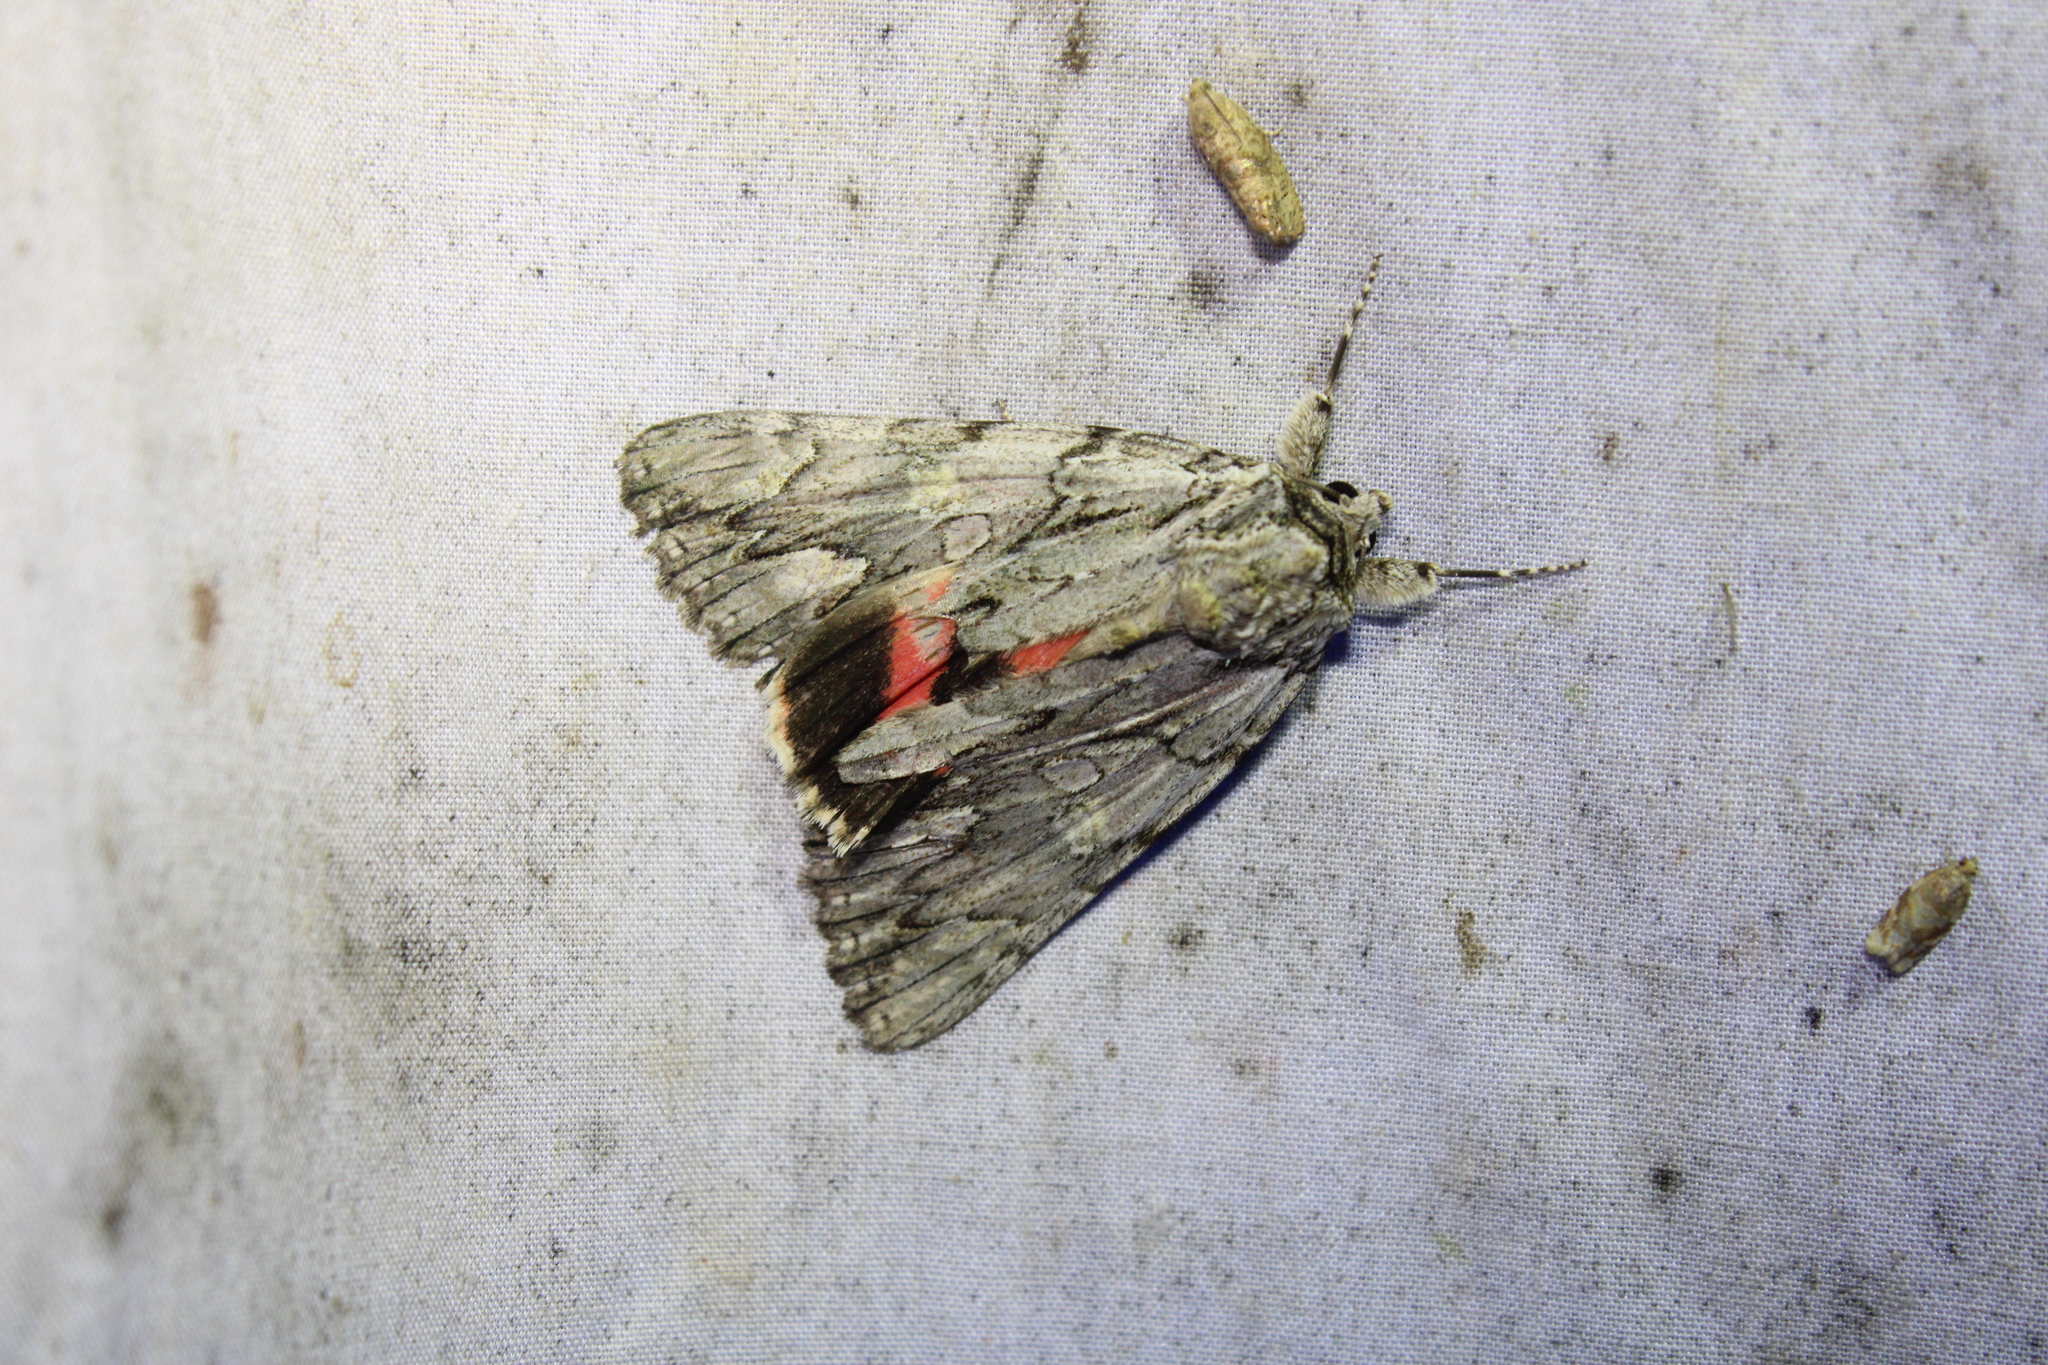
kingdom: Animalia
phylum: Arthropoda
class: Insecta
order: Lepidoptera
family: Erebidae
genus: Catocala
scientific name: Catocala coccinata
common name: Scarlet underwing
